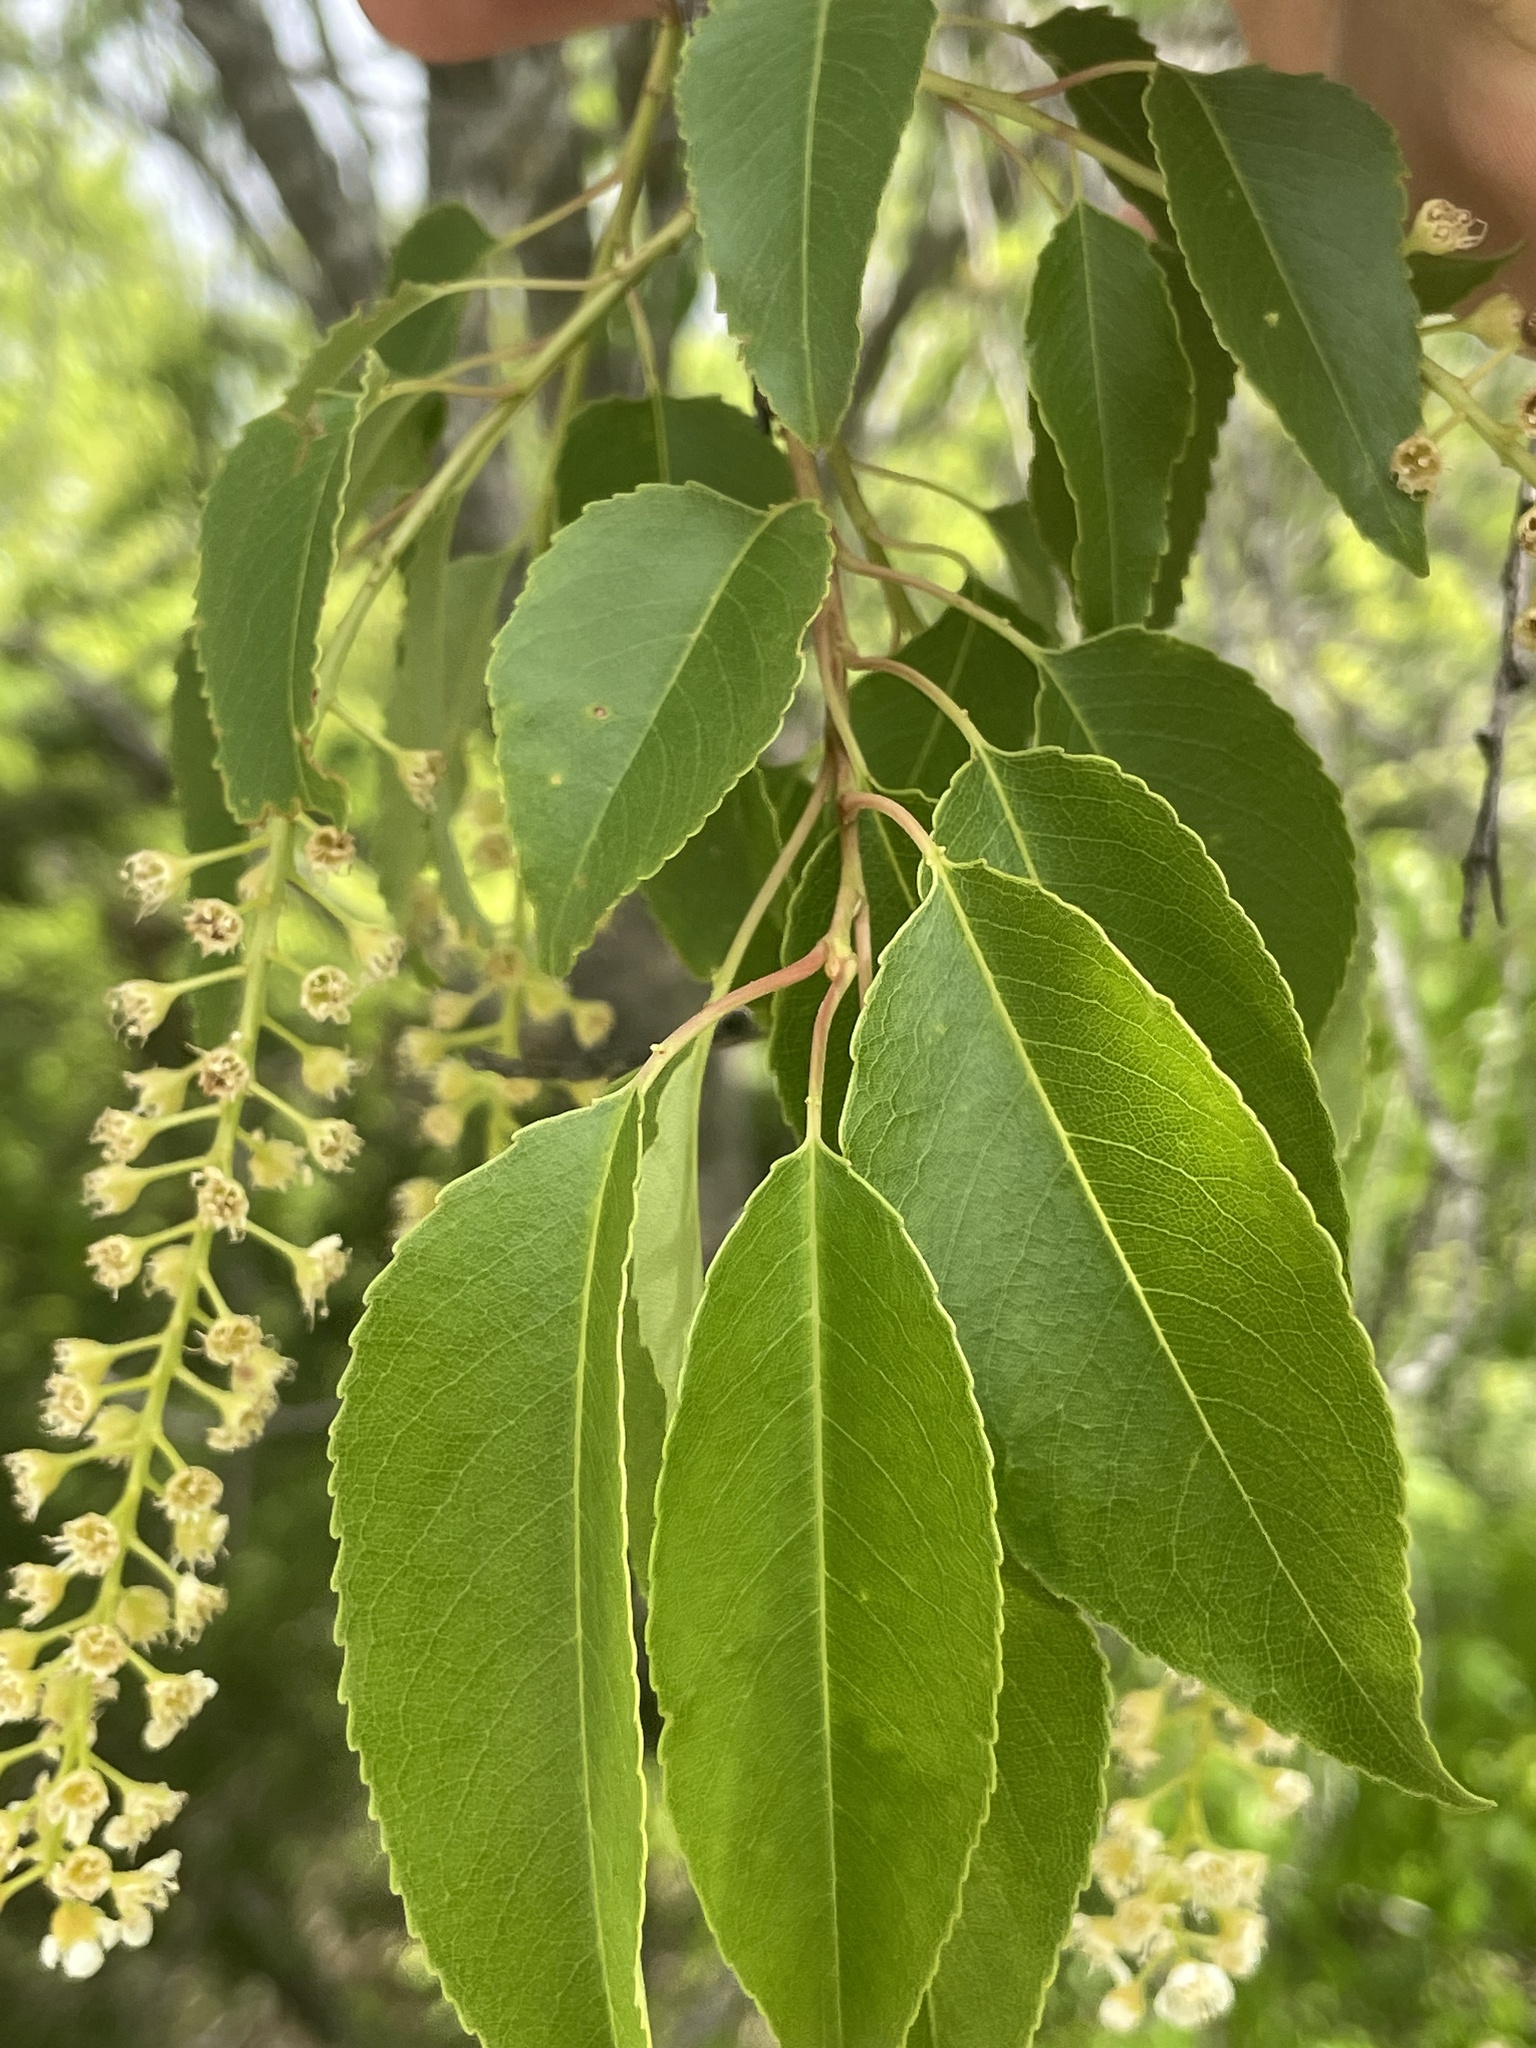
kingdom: Plantae
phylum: Tracheophyta
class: Magnoliopsida
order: Rosales
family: Rosaceae
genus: Prunus
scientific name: Prunus serotina
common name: Black cherry
